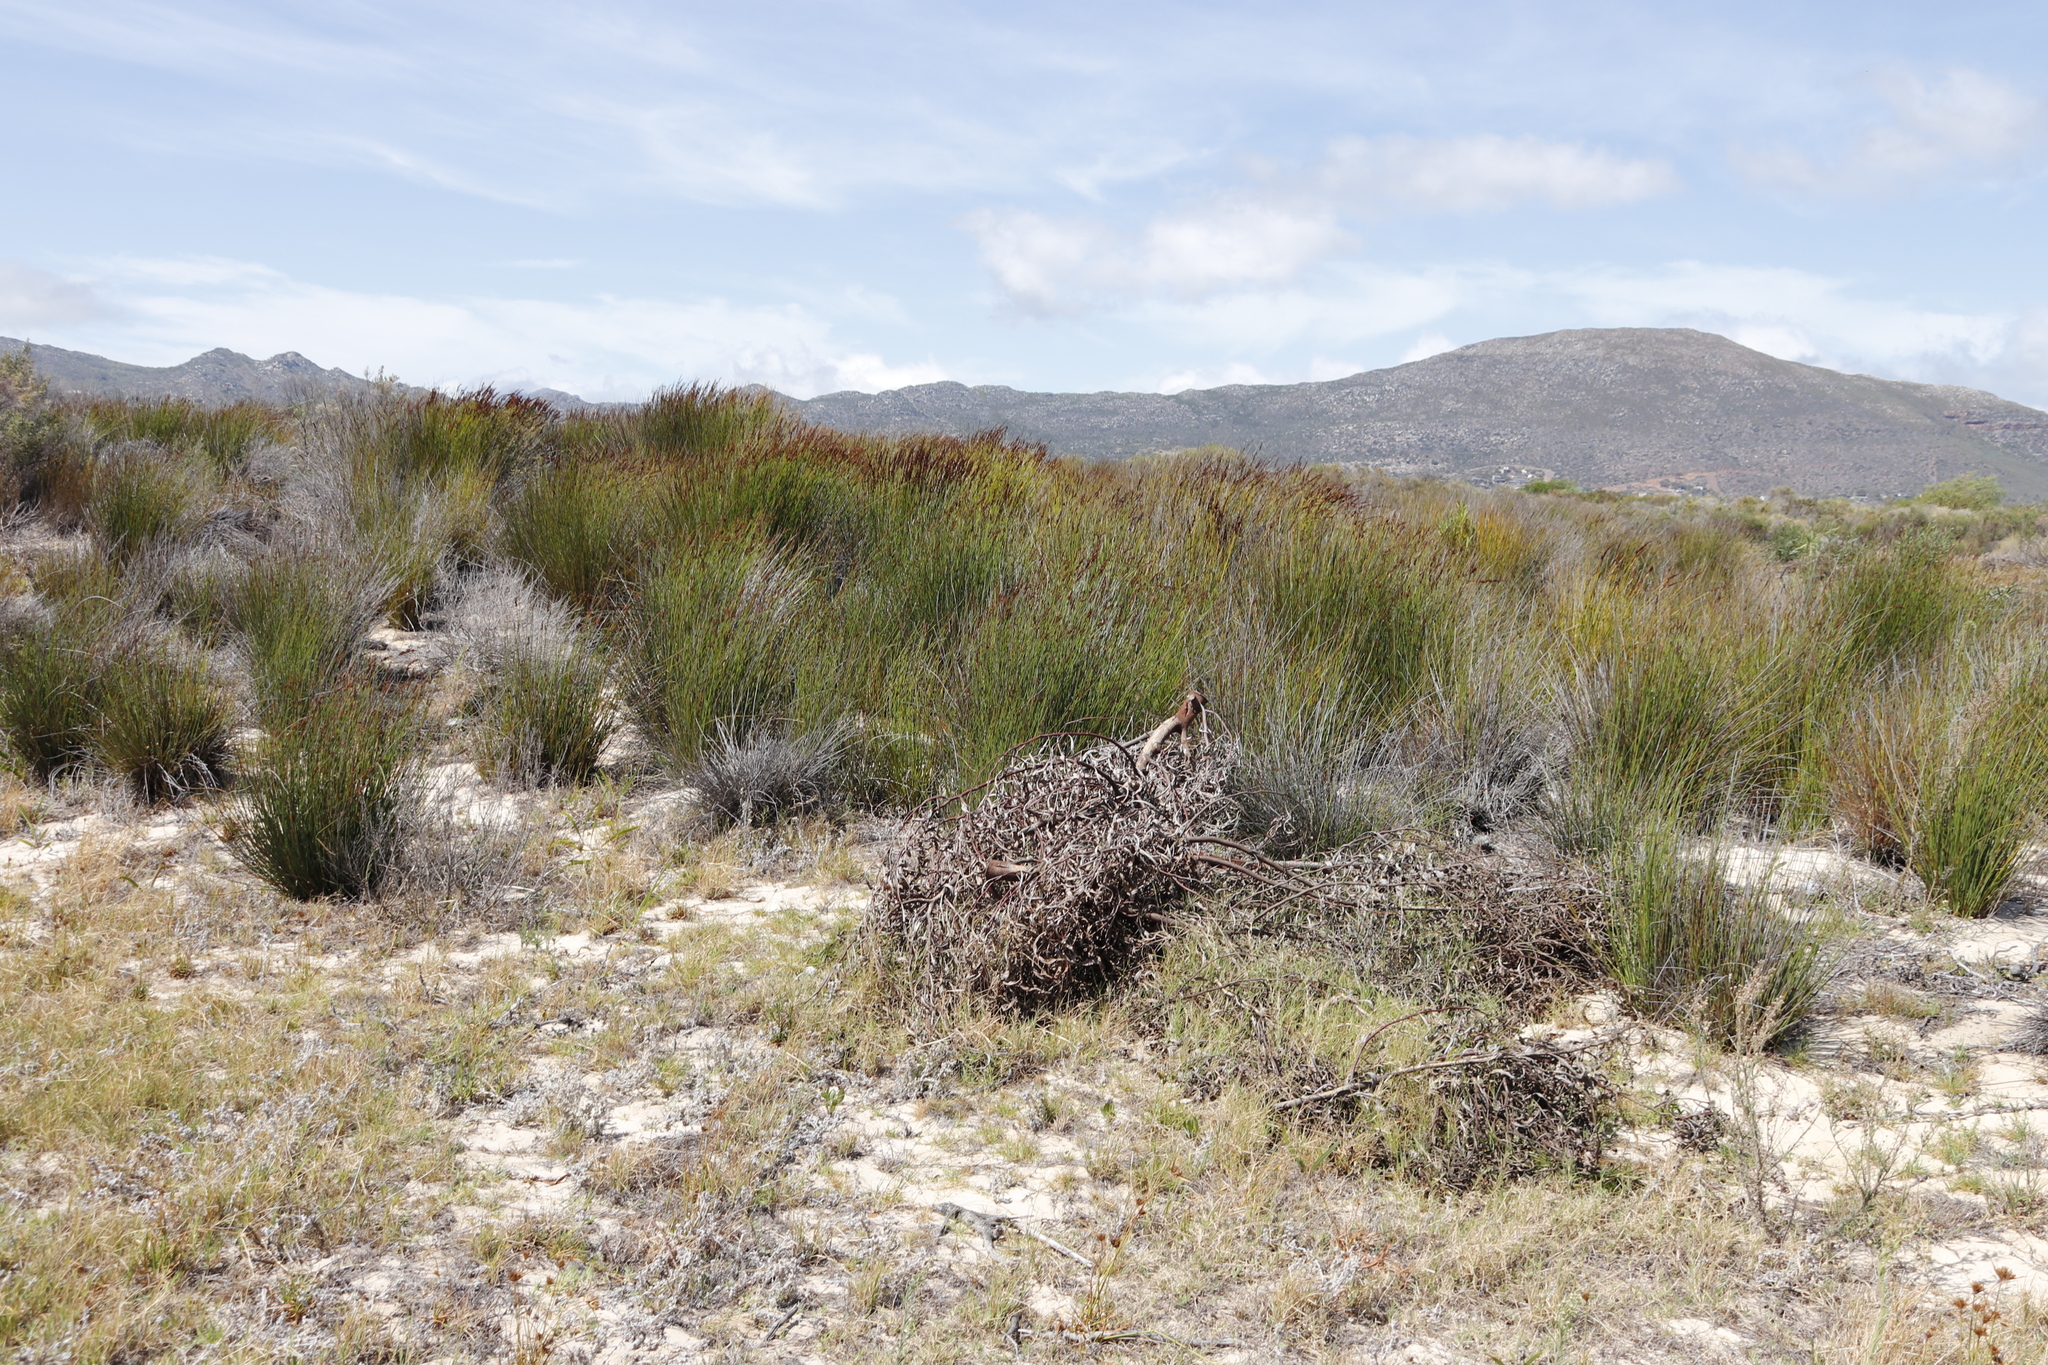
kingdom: Plantae
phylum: Tracheophyta
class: Liliopsida
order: Poales
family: Restionaceae
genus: Elegia
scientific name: Elegia tectorum
